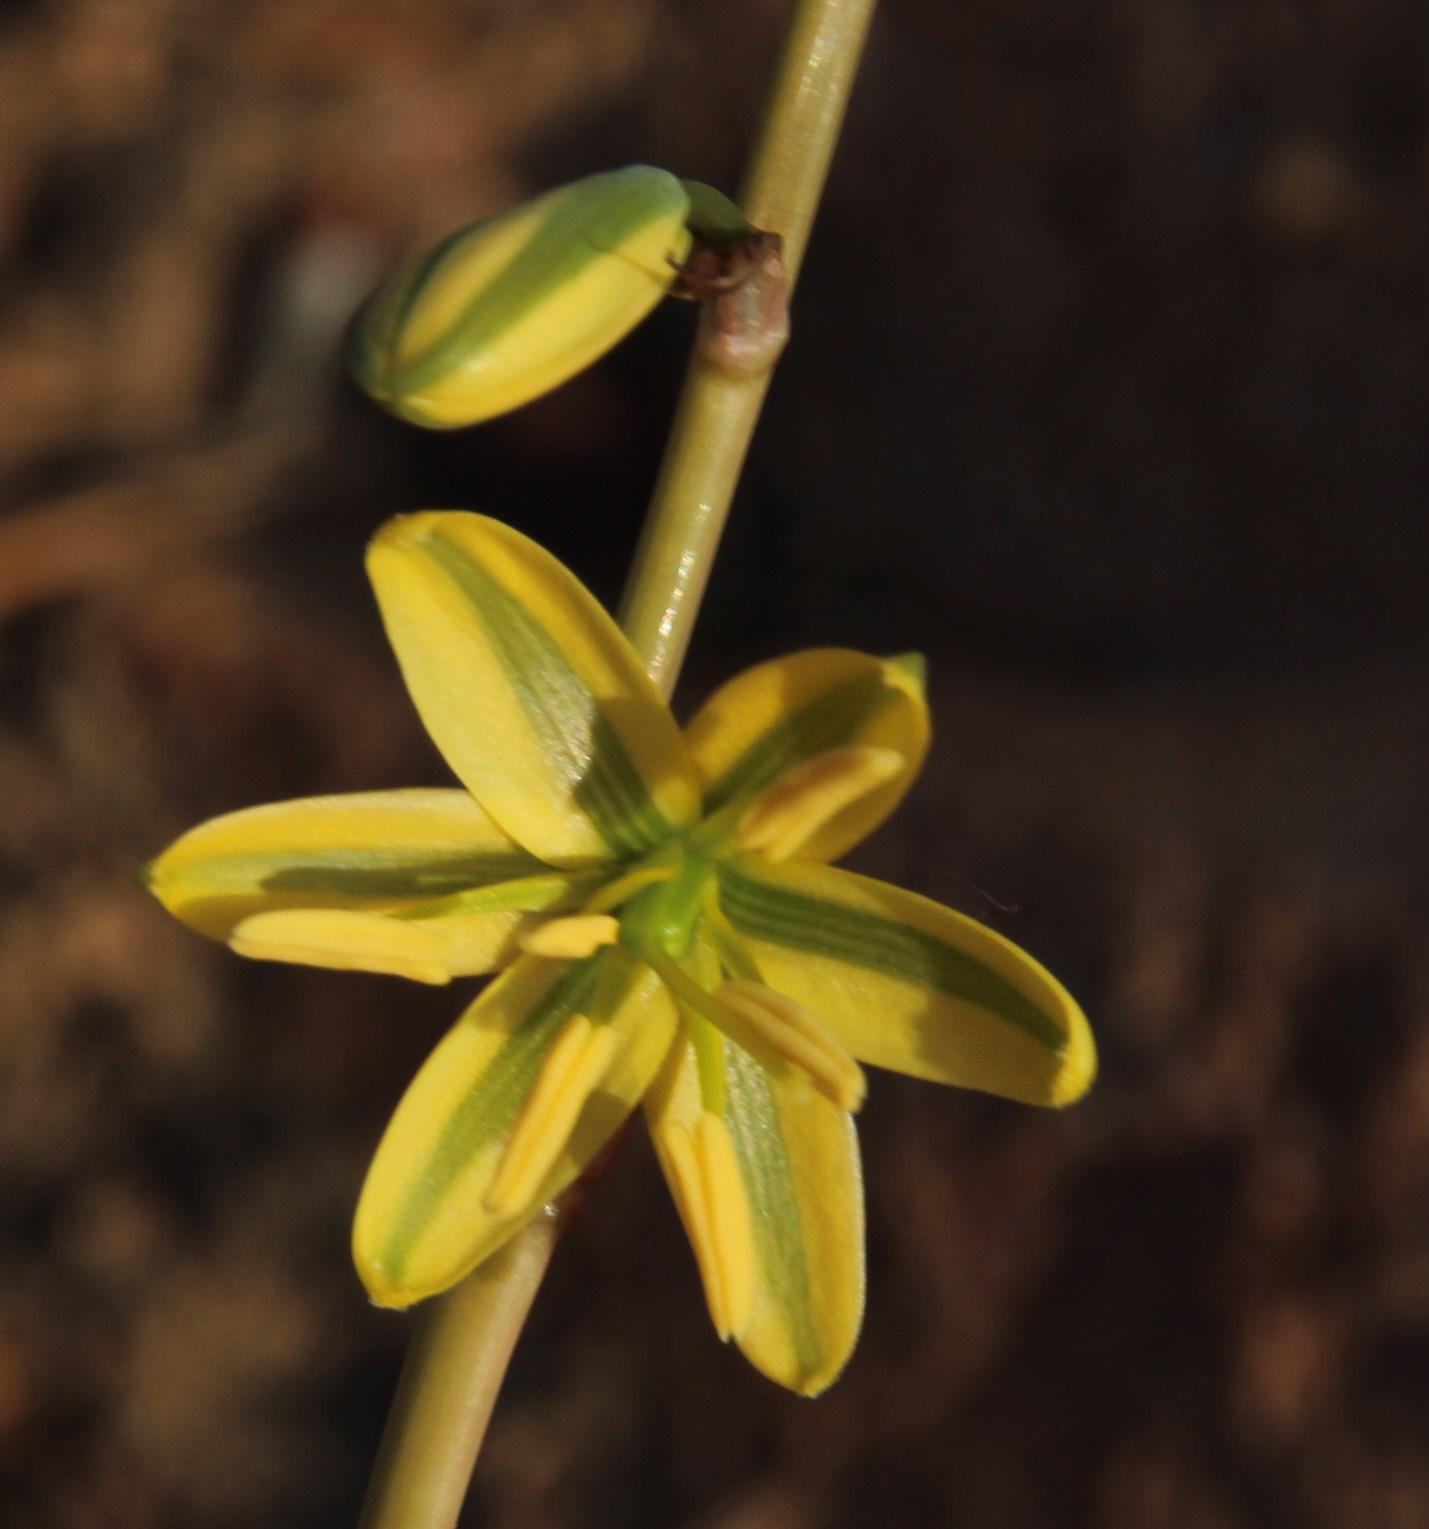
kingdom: Plantae
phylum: Tracheophyta
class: Liliopsida
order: Asparagales
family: Asparagaceae
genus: Albuca
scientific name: Albuca sabulosa
